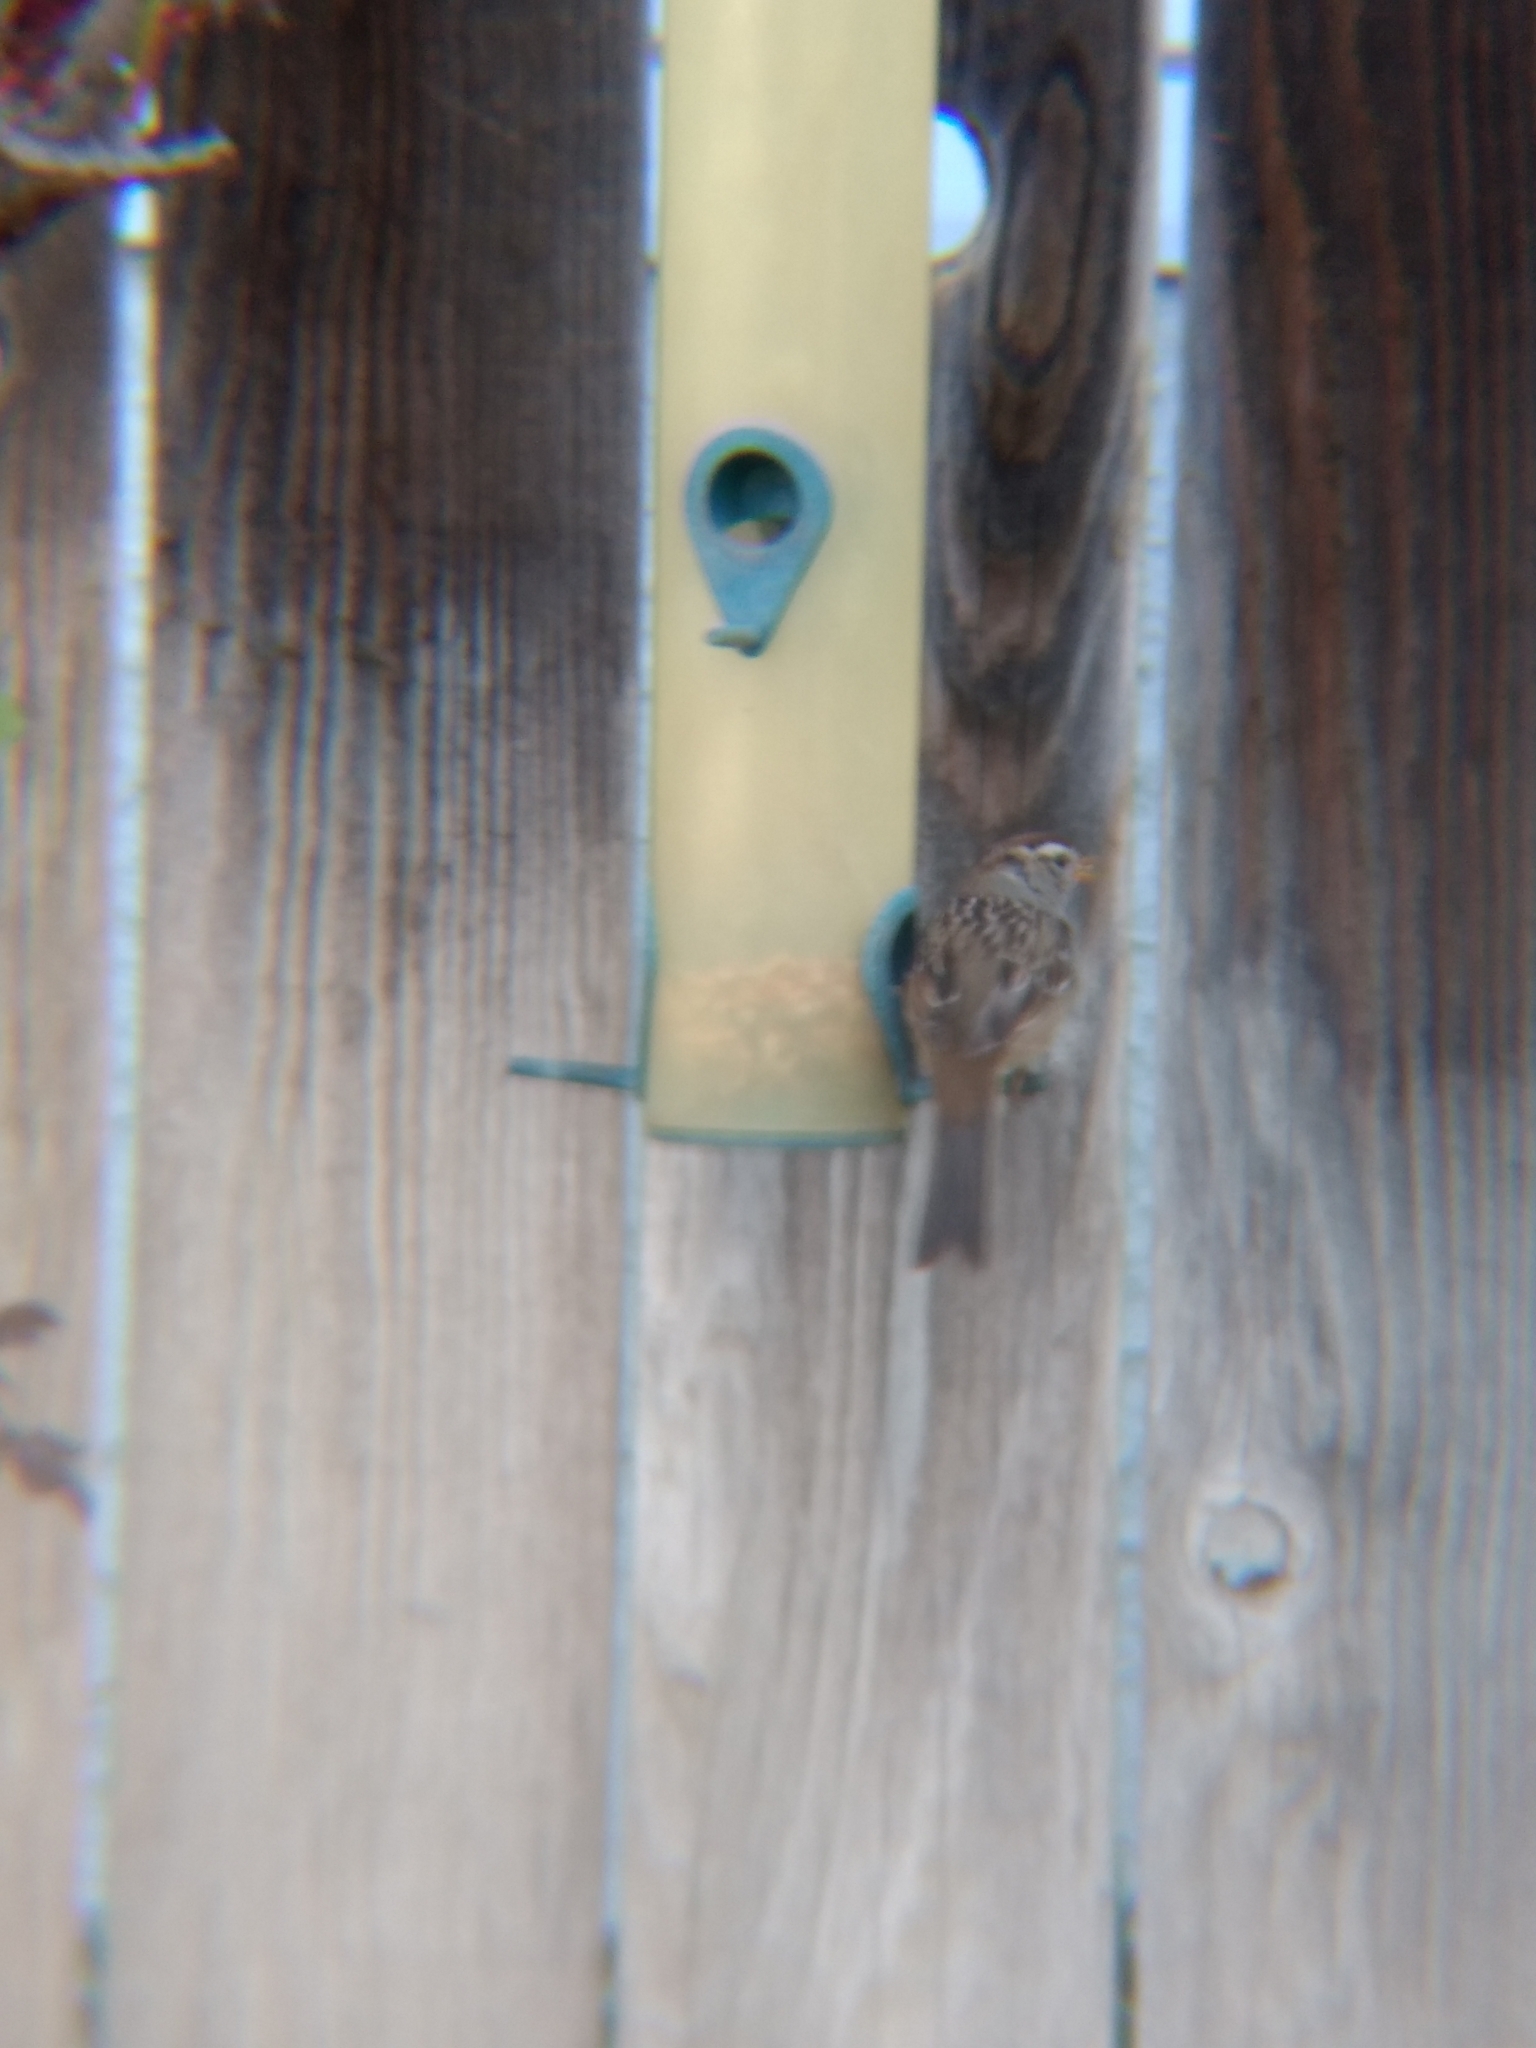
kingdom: Animalia
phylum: Chordata
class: Aves
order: Passeriformes
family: Passerellidae
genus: Zonotrichia
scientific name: Zonotrichia leucophrys
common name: White-crowned sparrow
